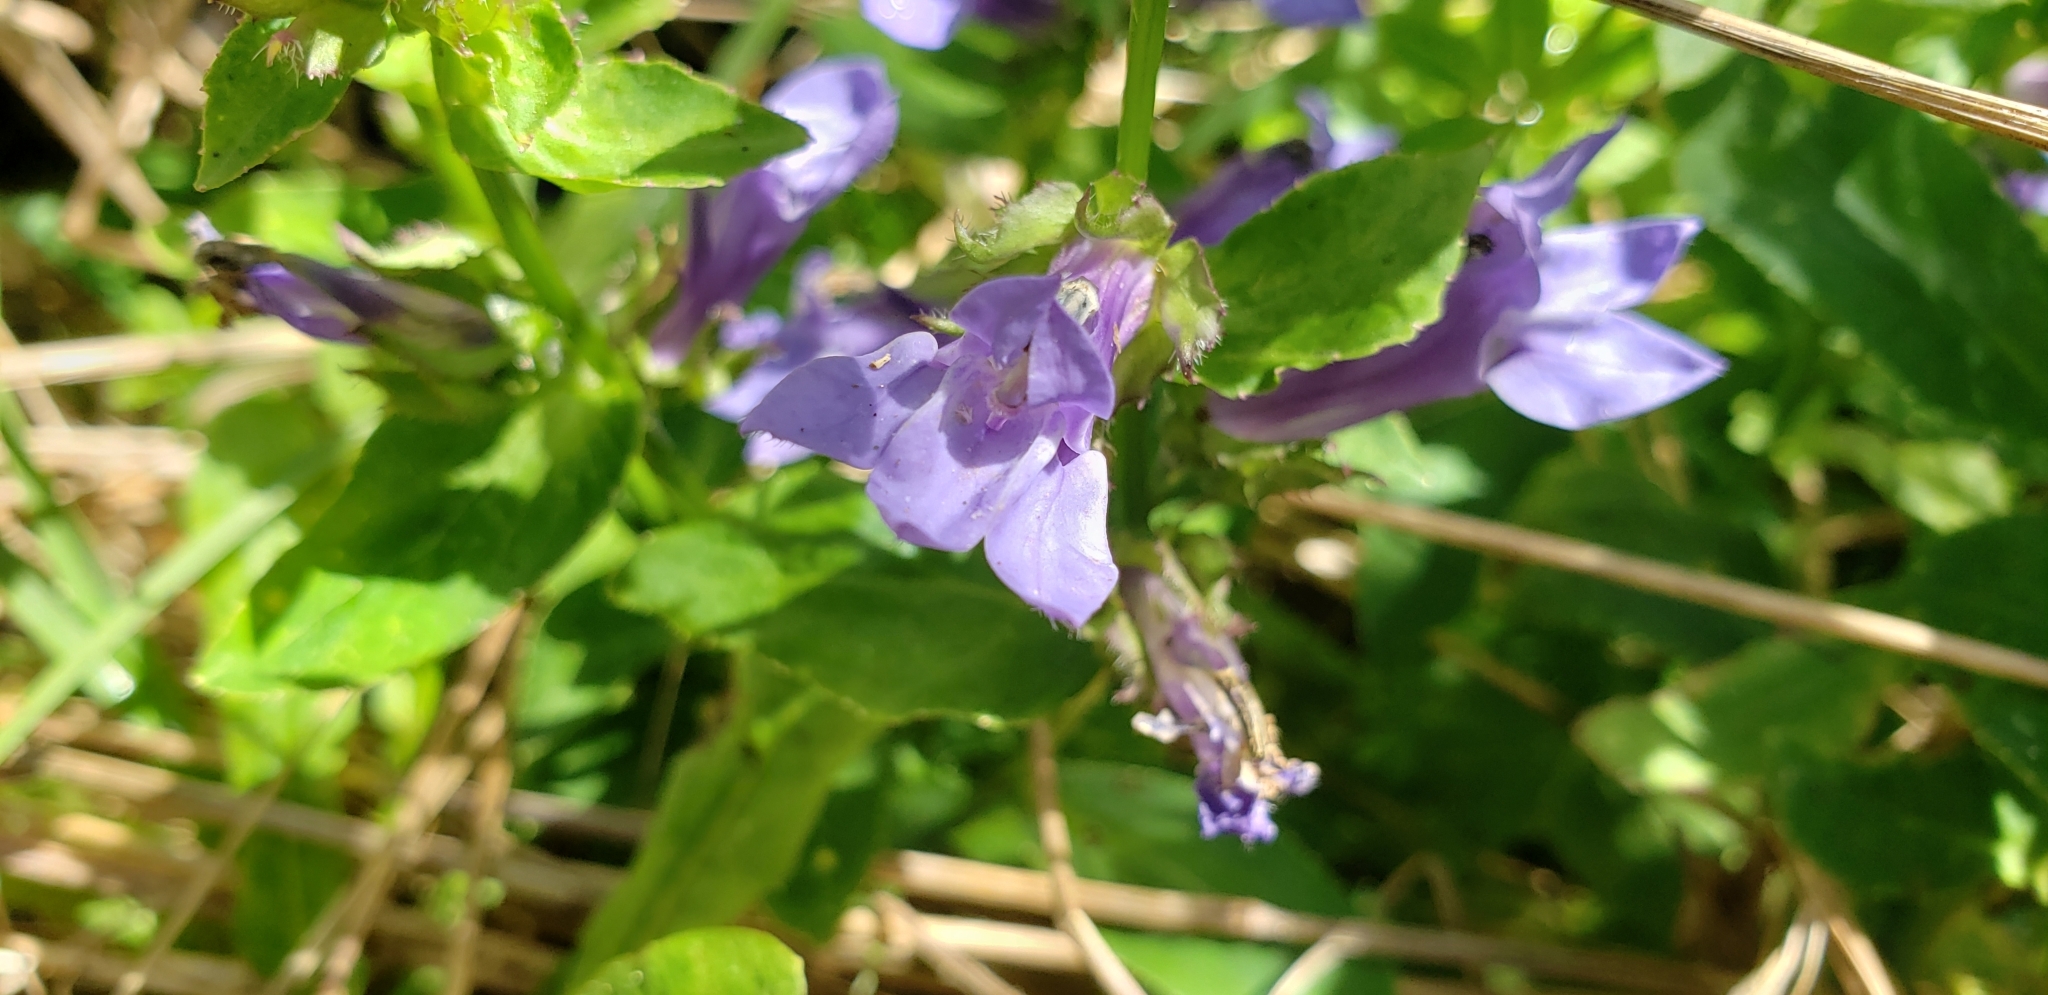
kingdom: Plantae
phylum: Tracheophyta
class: Magnoliopsida
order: Asterales
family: Campanulaceae
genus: Lobelia
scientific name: Lobelia siphilitica
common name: Great lobelia
